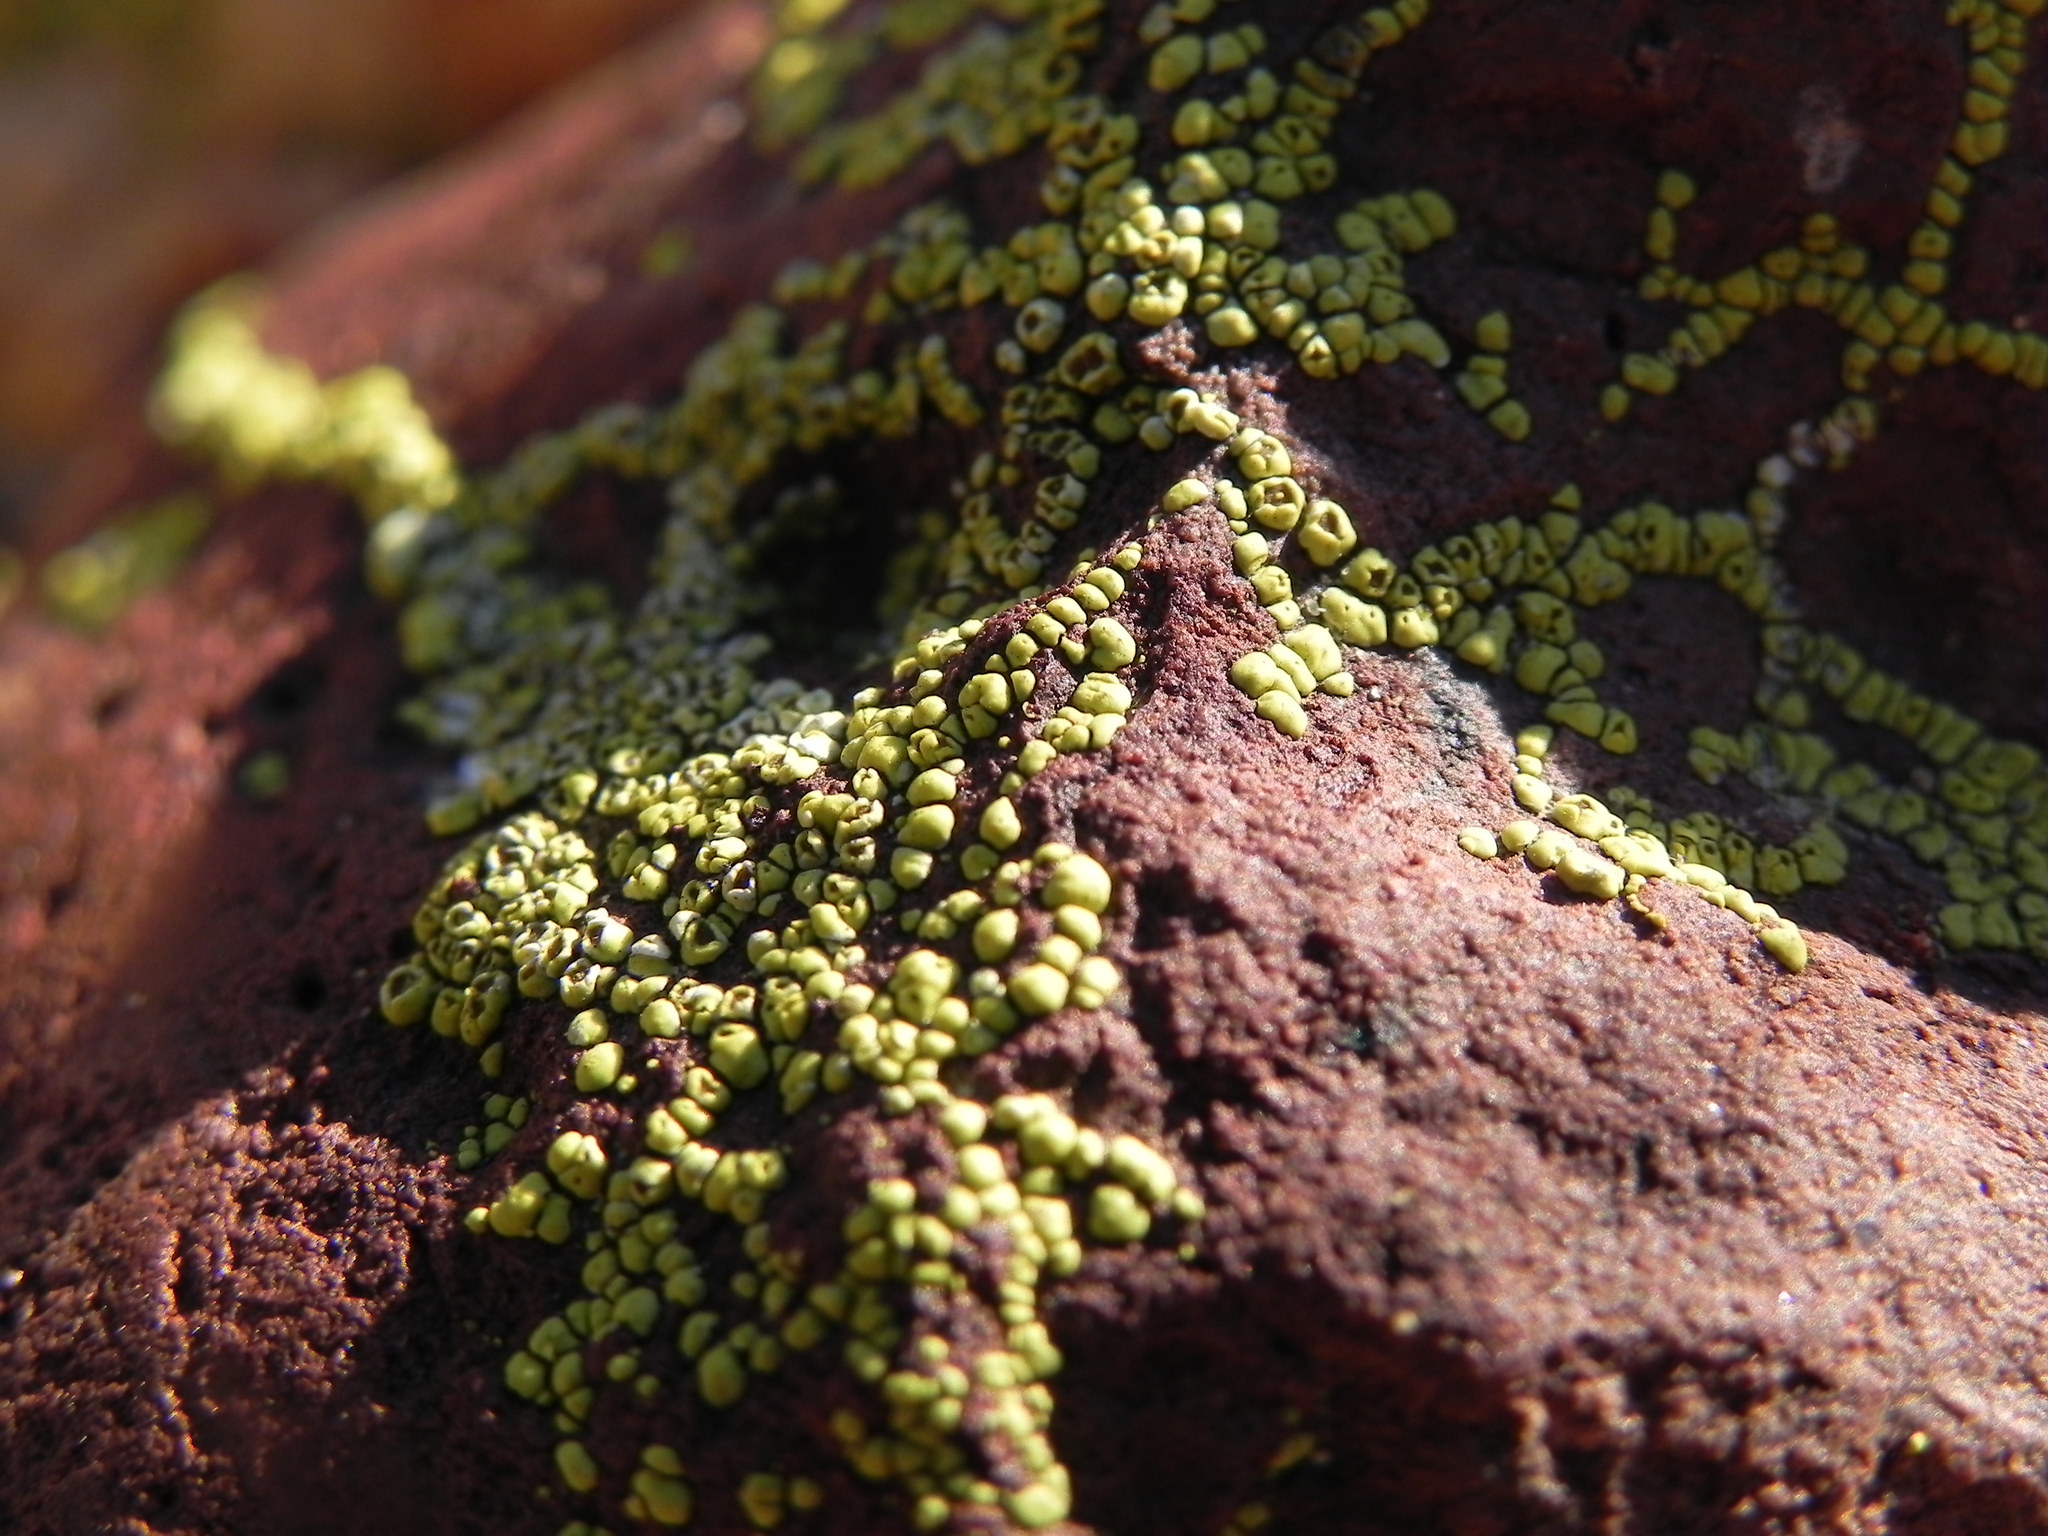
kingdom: Fungi
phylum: Ascomycota
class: Lecanoromycetes
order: Acarosporales
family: Acarosporaceae
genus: Acarospora
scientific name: Acarospora socialis
